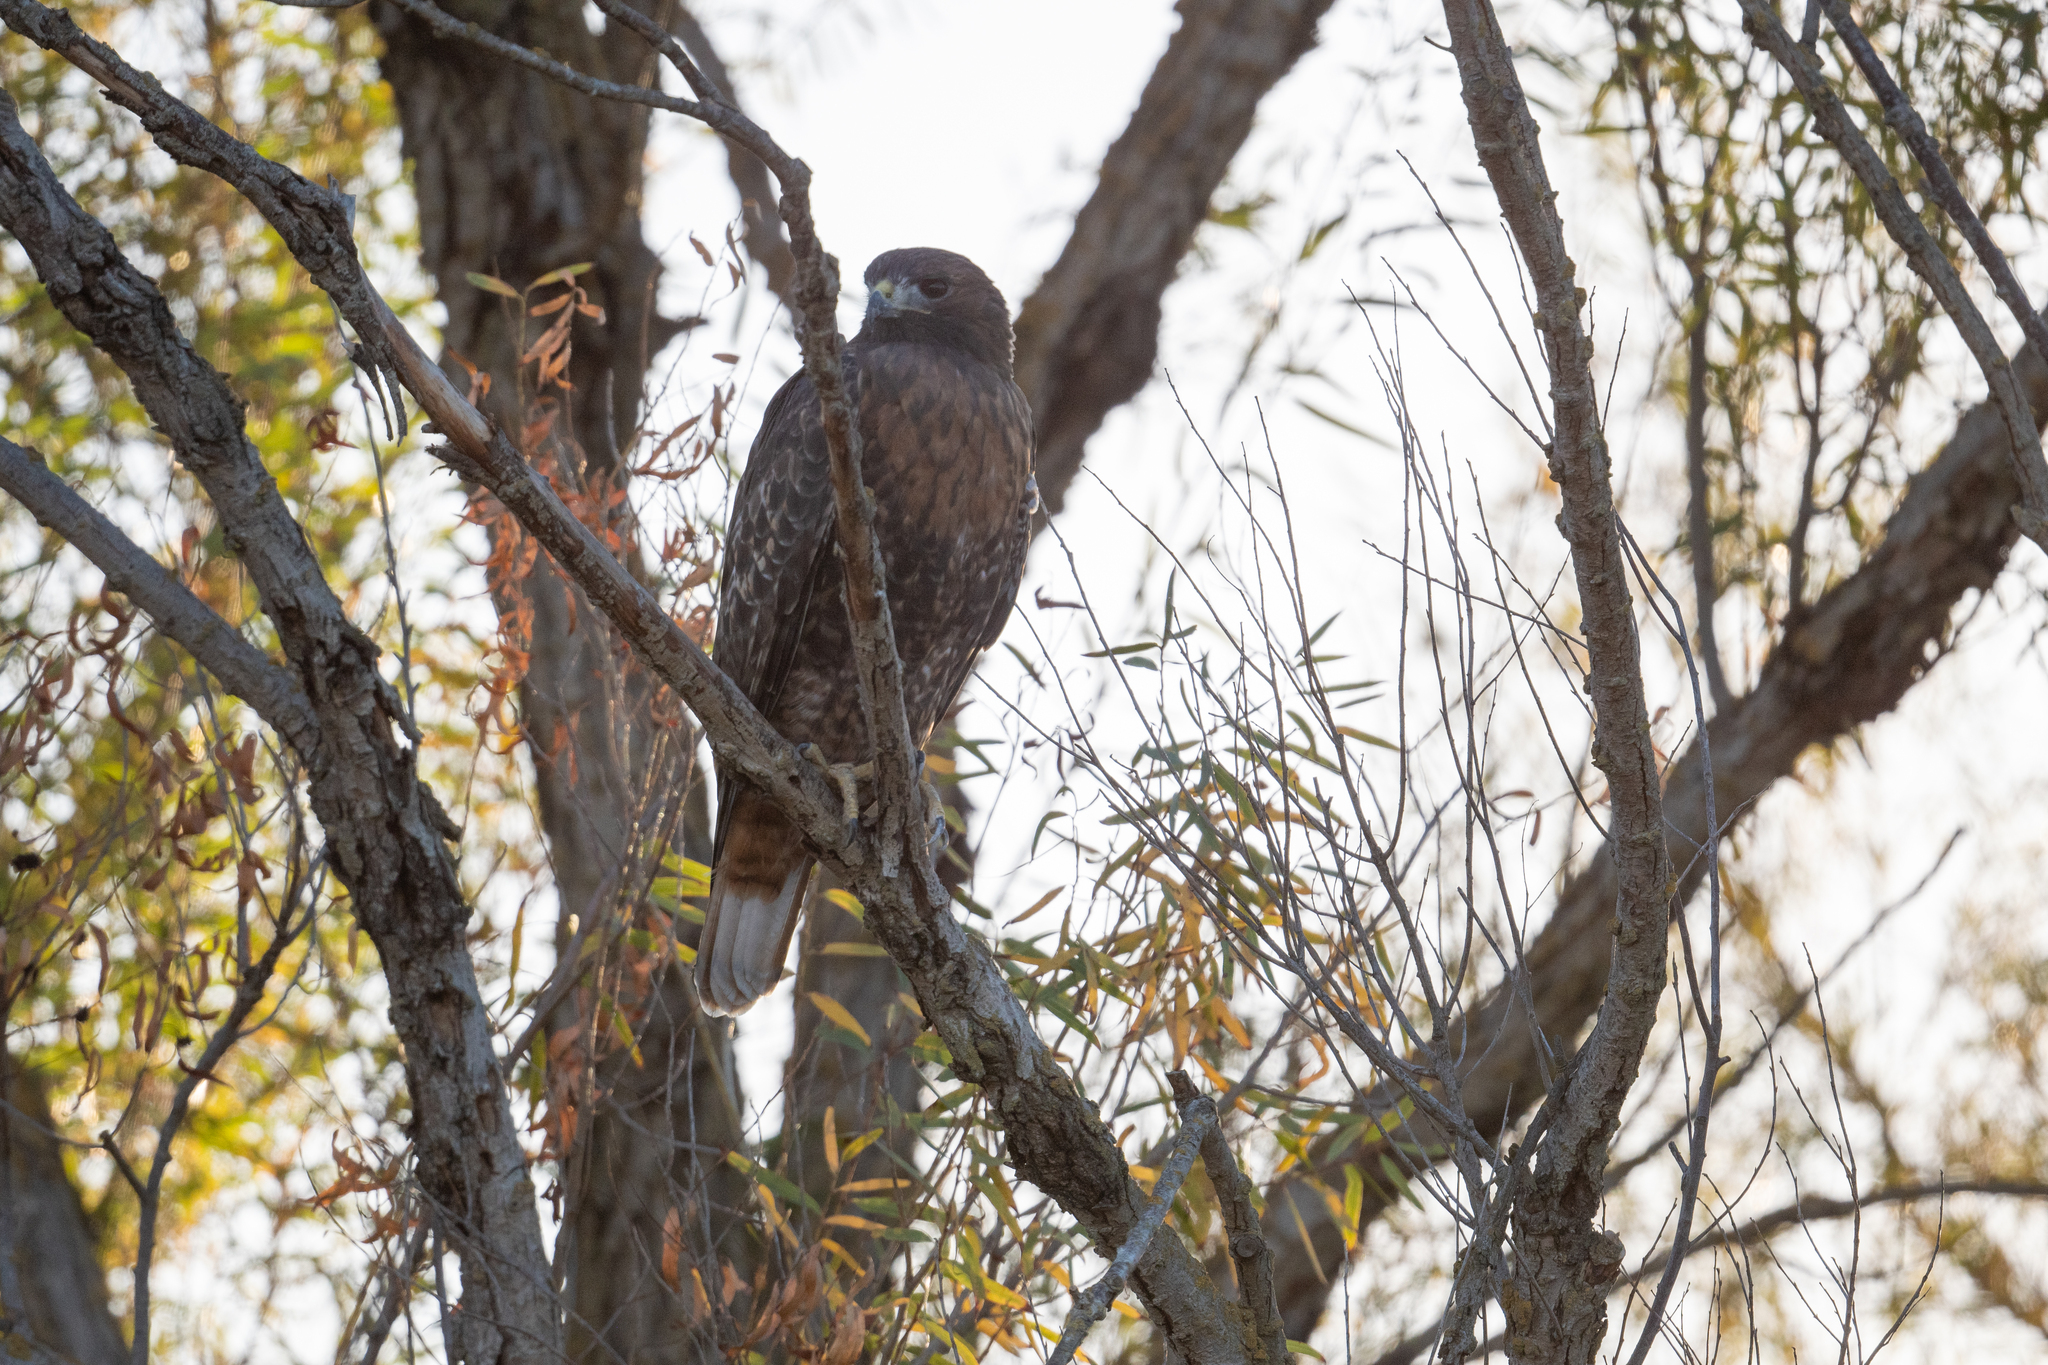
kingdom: Animalia
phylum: Chordata
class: Aves
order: Accipitriformes
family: Accipitridae
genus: Buteo
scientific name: Buteo jamaicensis
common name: Red-tailed hawk
